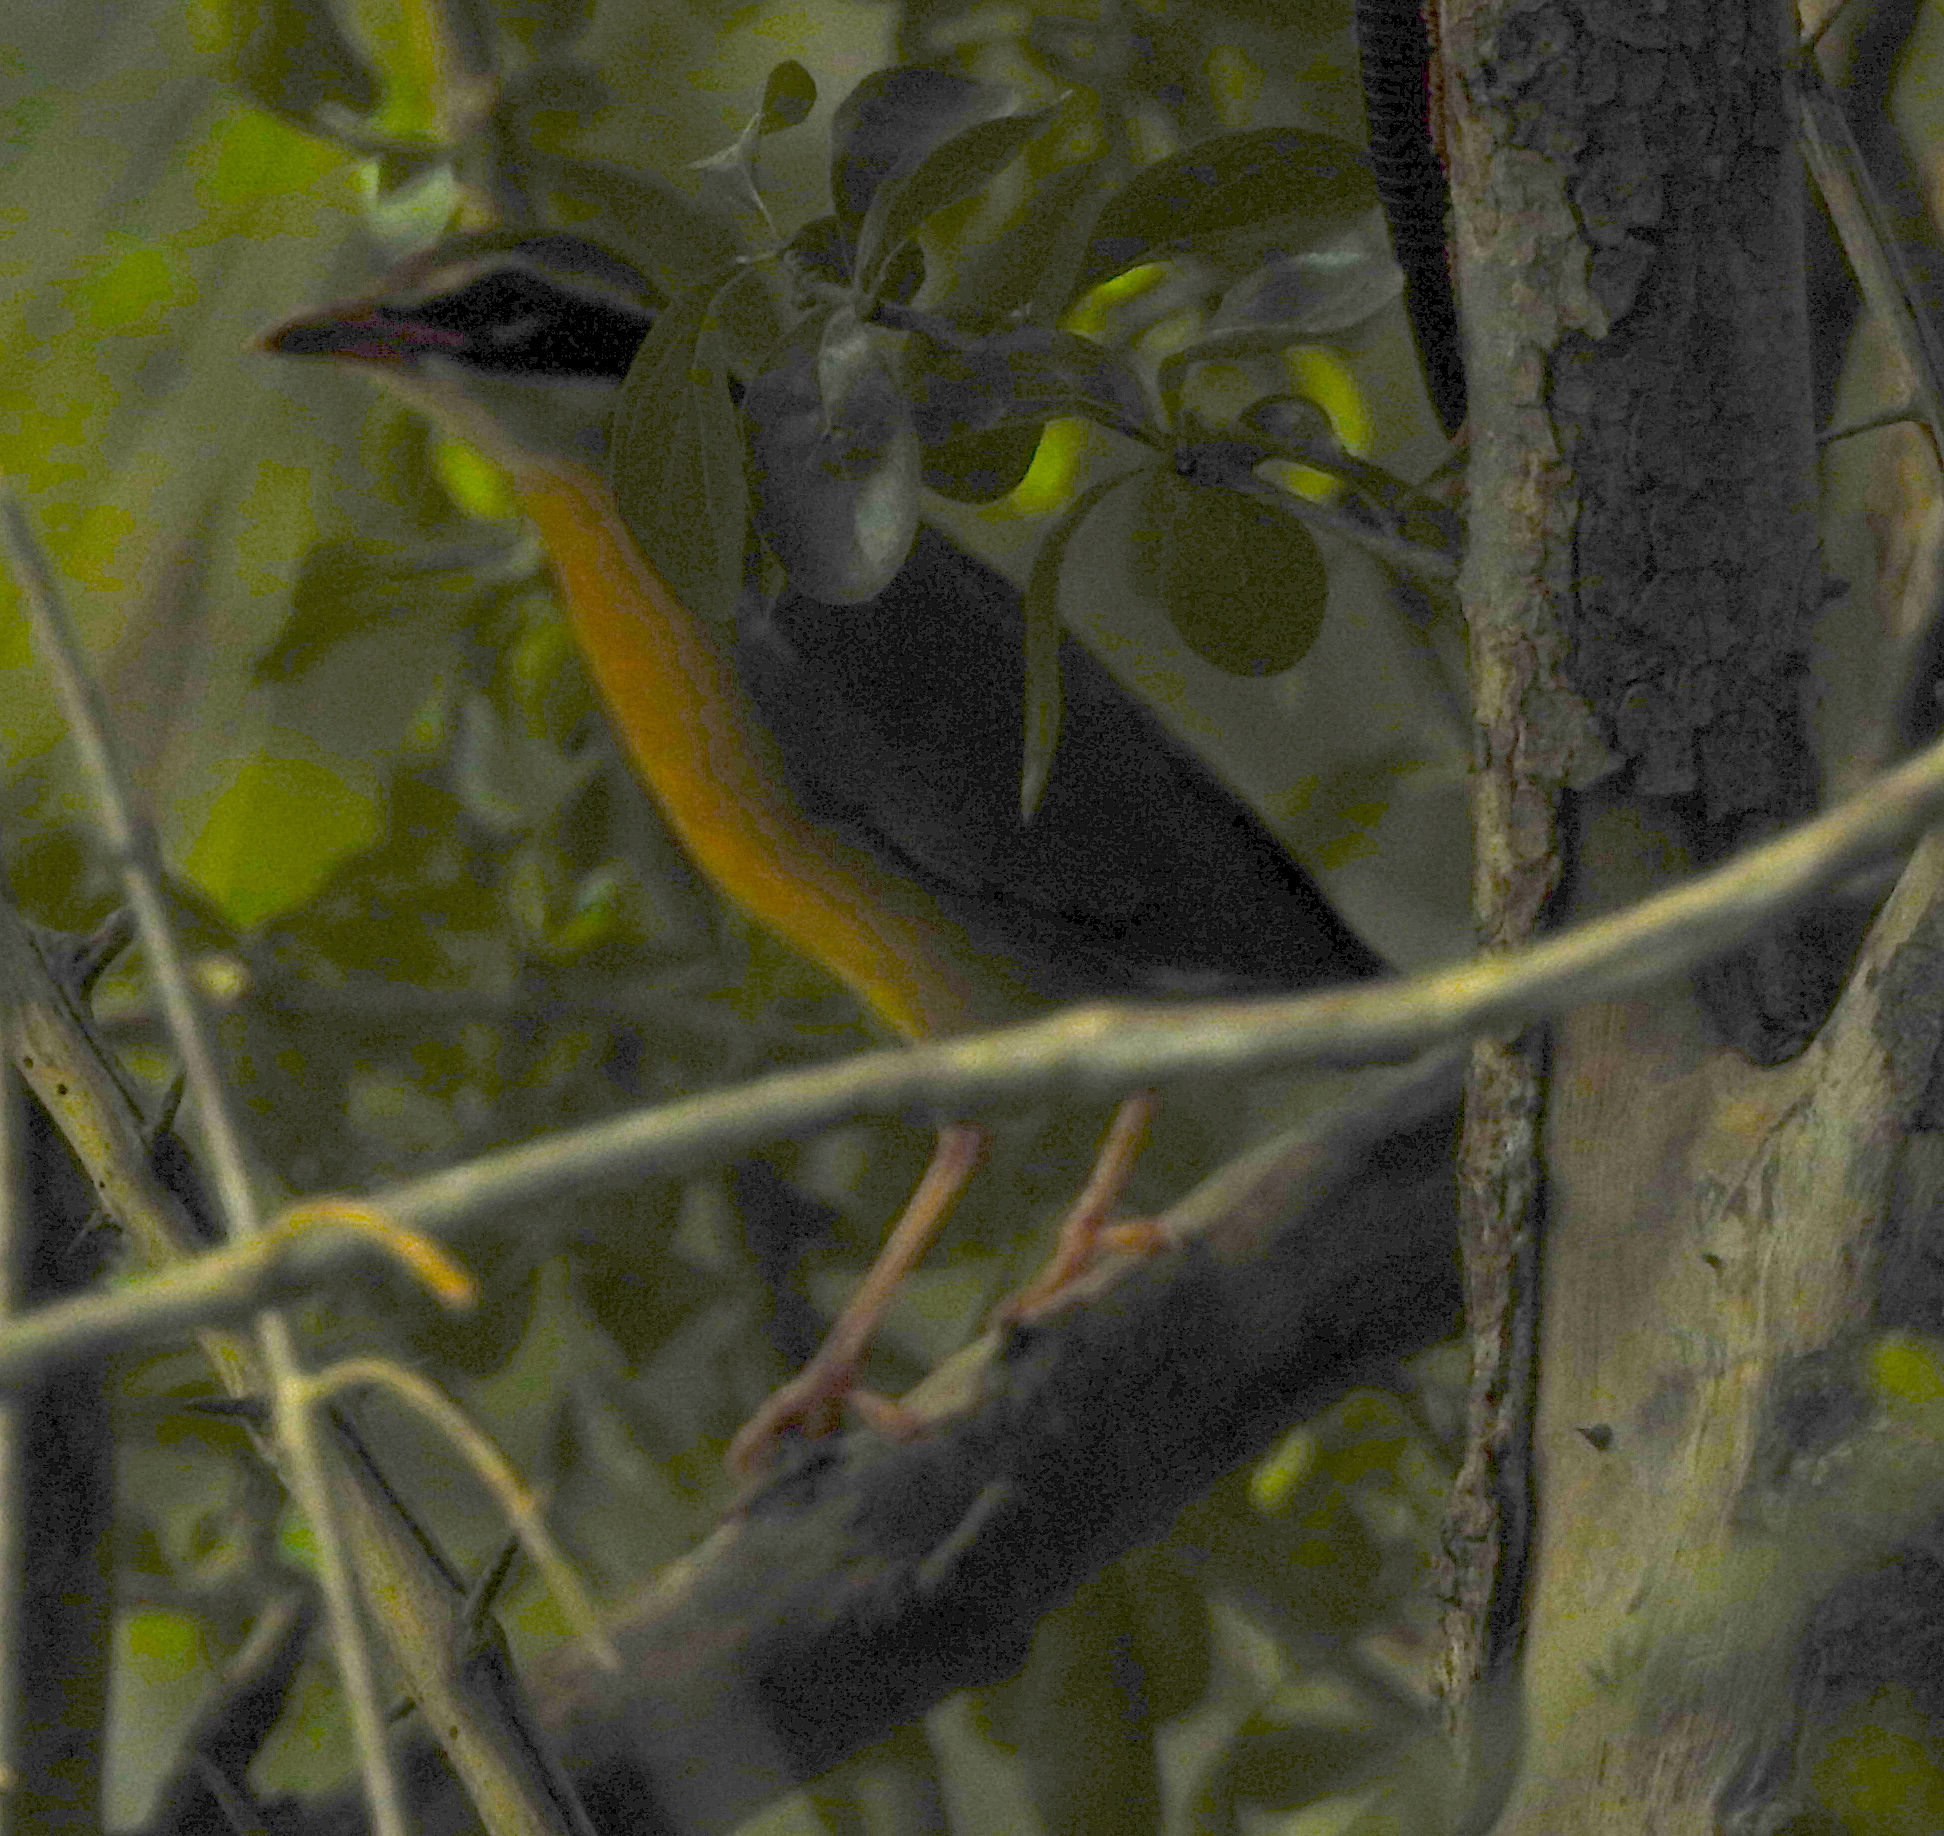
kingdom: Animalia
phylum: Chordata
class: Aves
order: Passeriformes
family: Pittidae
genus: Pitta
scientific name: Pitta brachyura
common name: Indian pitta
